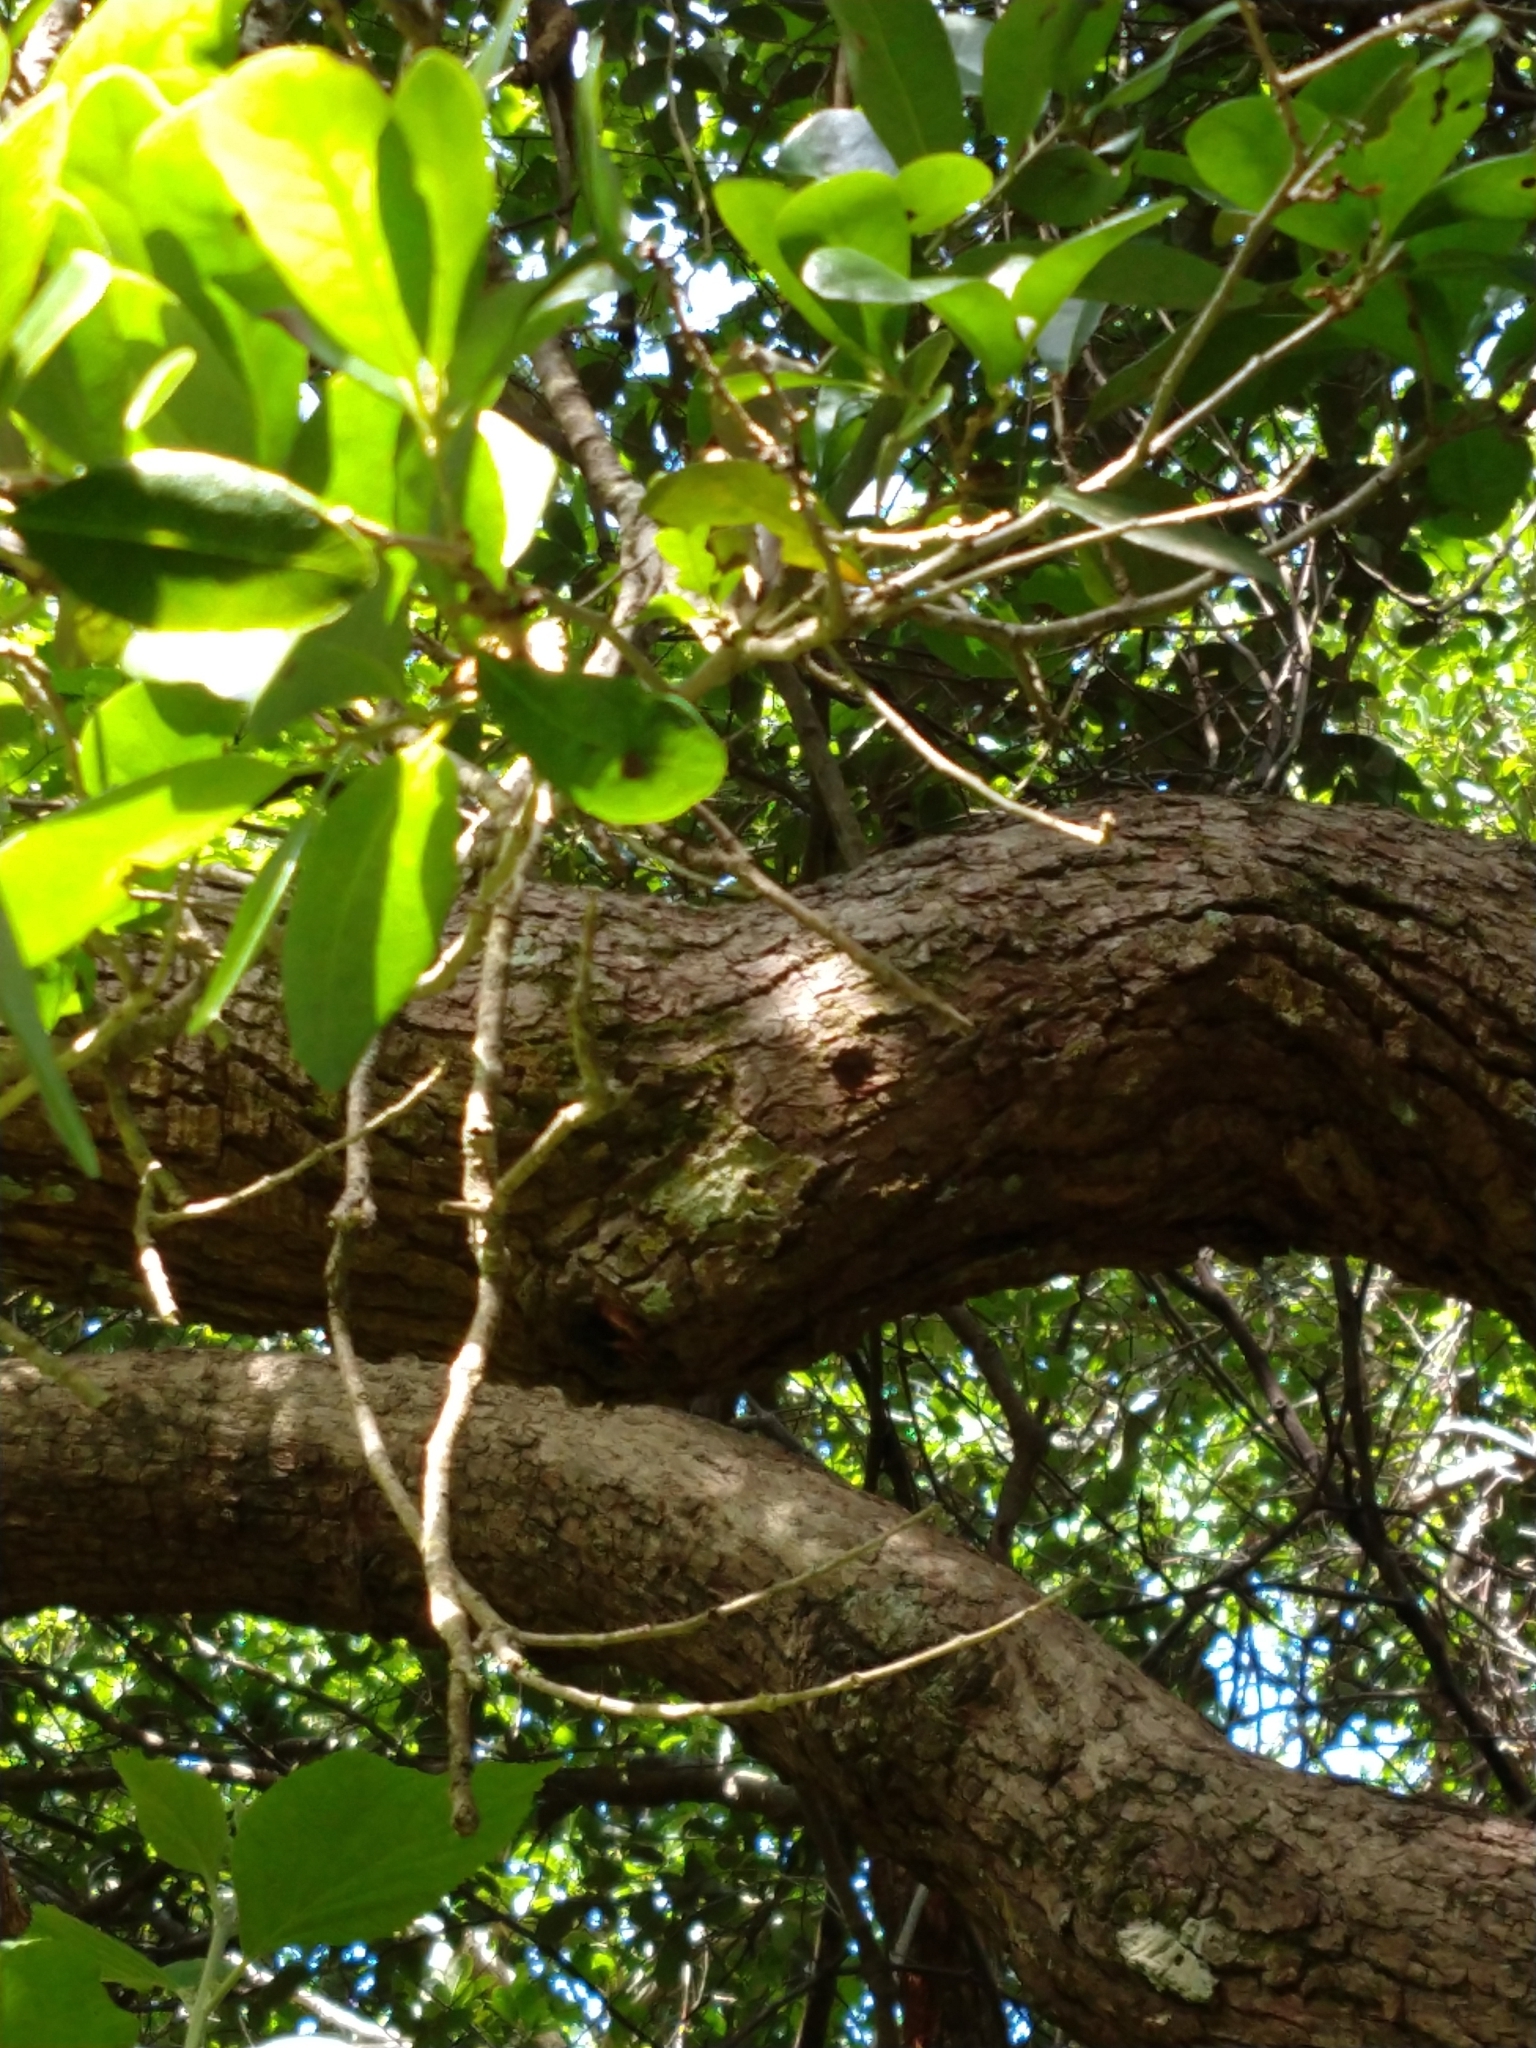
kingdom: Plantae
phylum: Tracheophyta
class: Magnoliopsida
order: Fagales
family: Fagaceae
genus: Quercus
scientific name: Quercus virginiana
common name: Southern live oak
